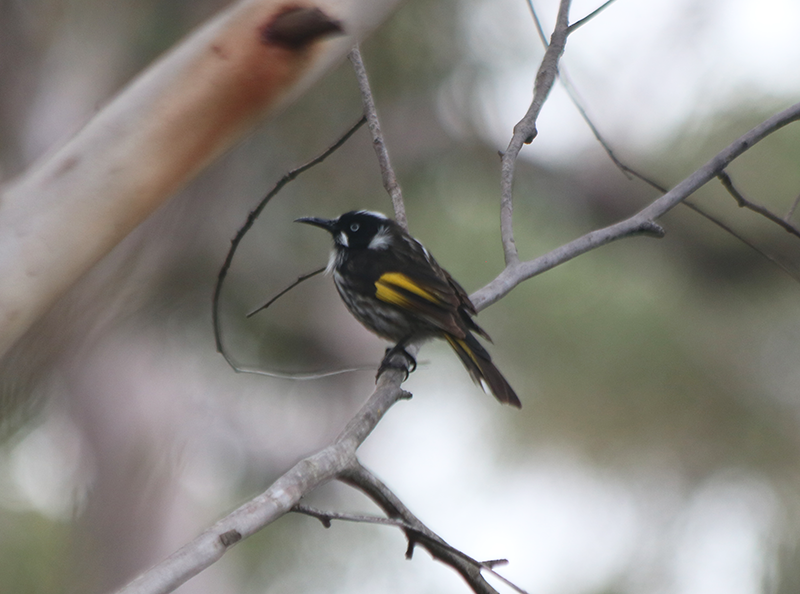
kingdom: Animalia
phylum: Chordata
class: Aves
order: Passeriformes
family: Meliphagidae
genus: Phylidonyris
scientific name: Phylidonyris novaehollandiae
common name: New holland honeyeater
